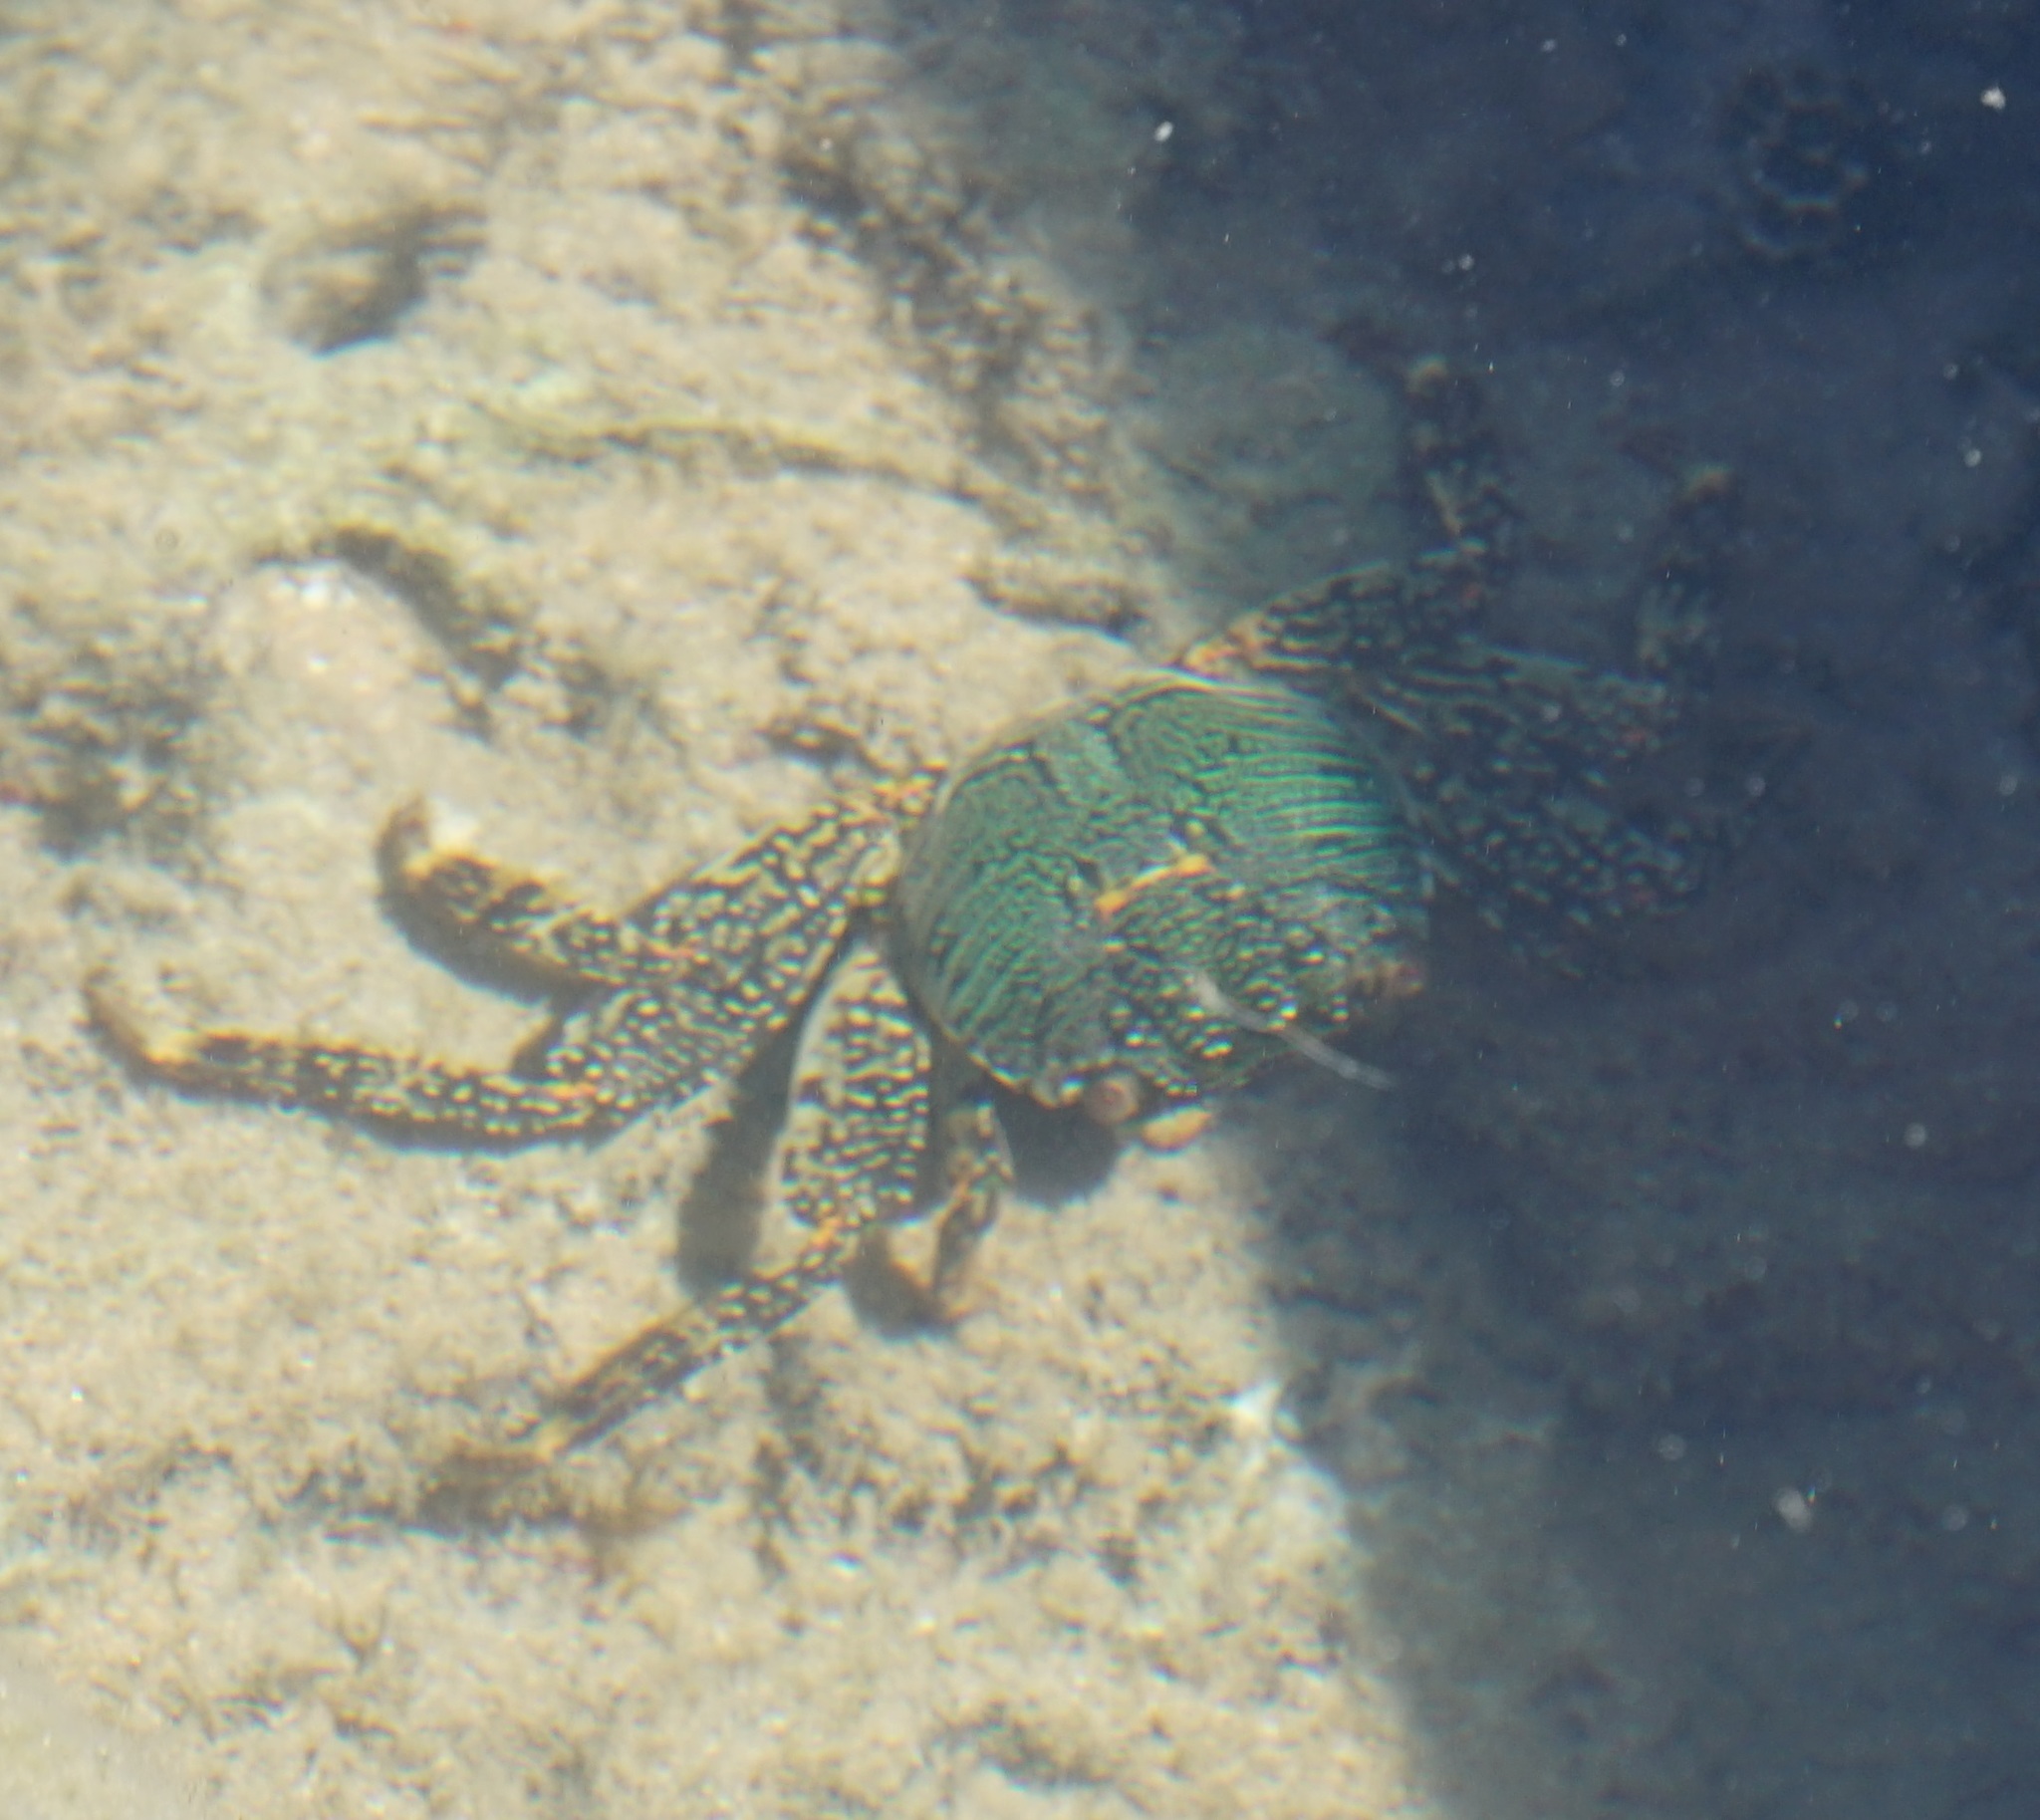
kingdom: Animalia
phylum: Arthropoda
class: Malacostraca
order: Decapoda
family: Grapsidae
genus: Grapsus
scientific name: Grapsus albolineatus
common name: Mottled lightfoot crab
